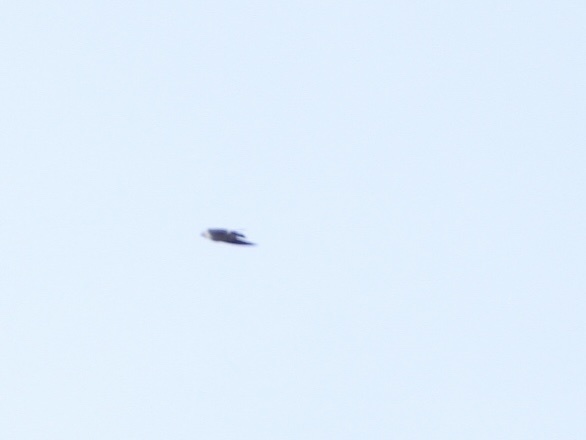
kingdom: Animalia
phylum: Chordata
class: Aves
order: Passeriformes
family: Hirundinidae
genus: Tachycineta
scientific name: Tachycineta thalassina
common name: Violet-green swallow
